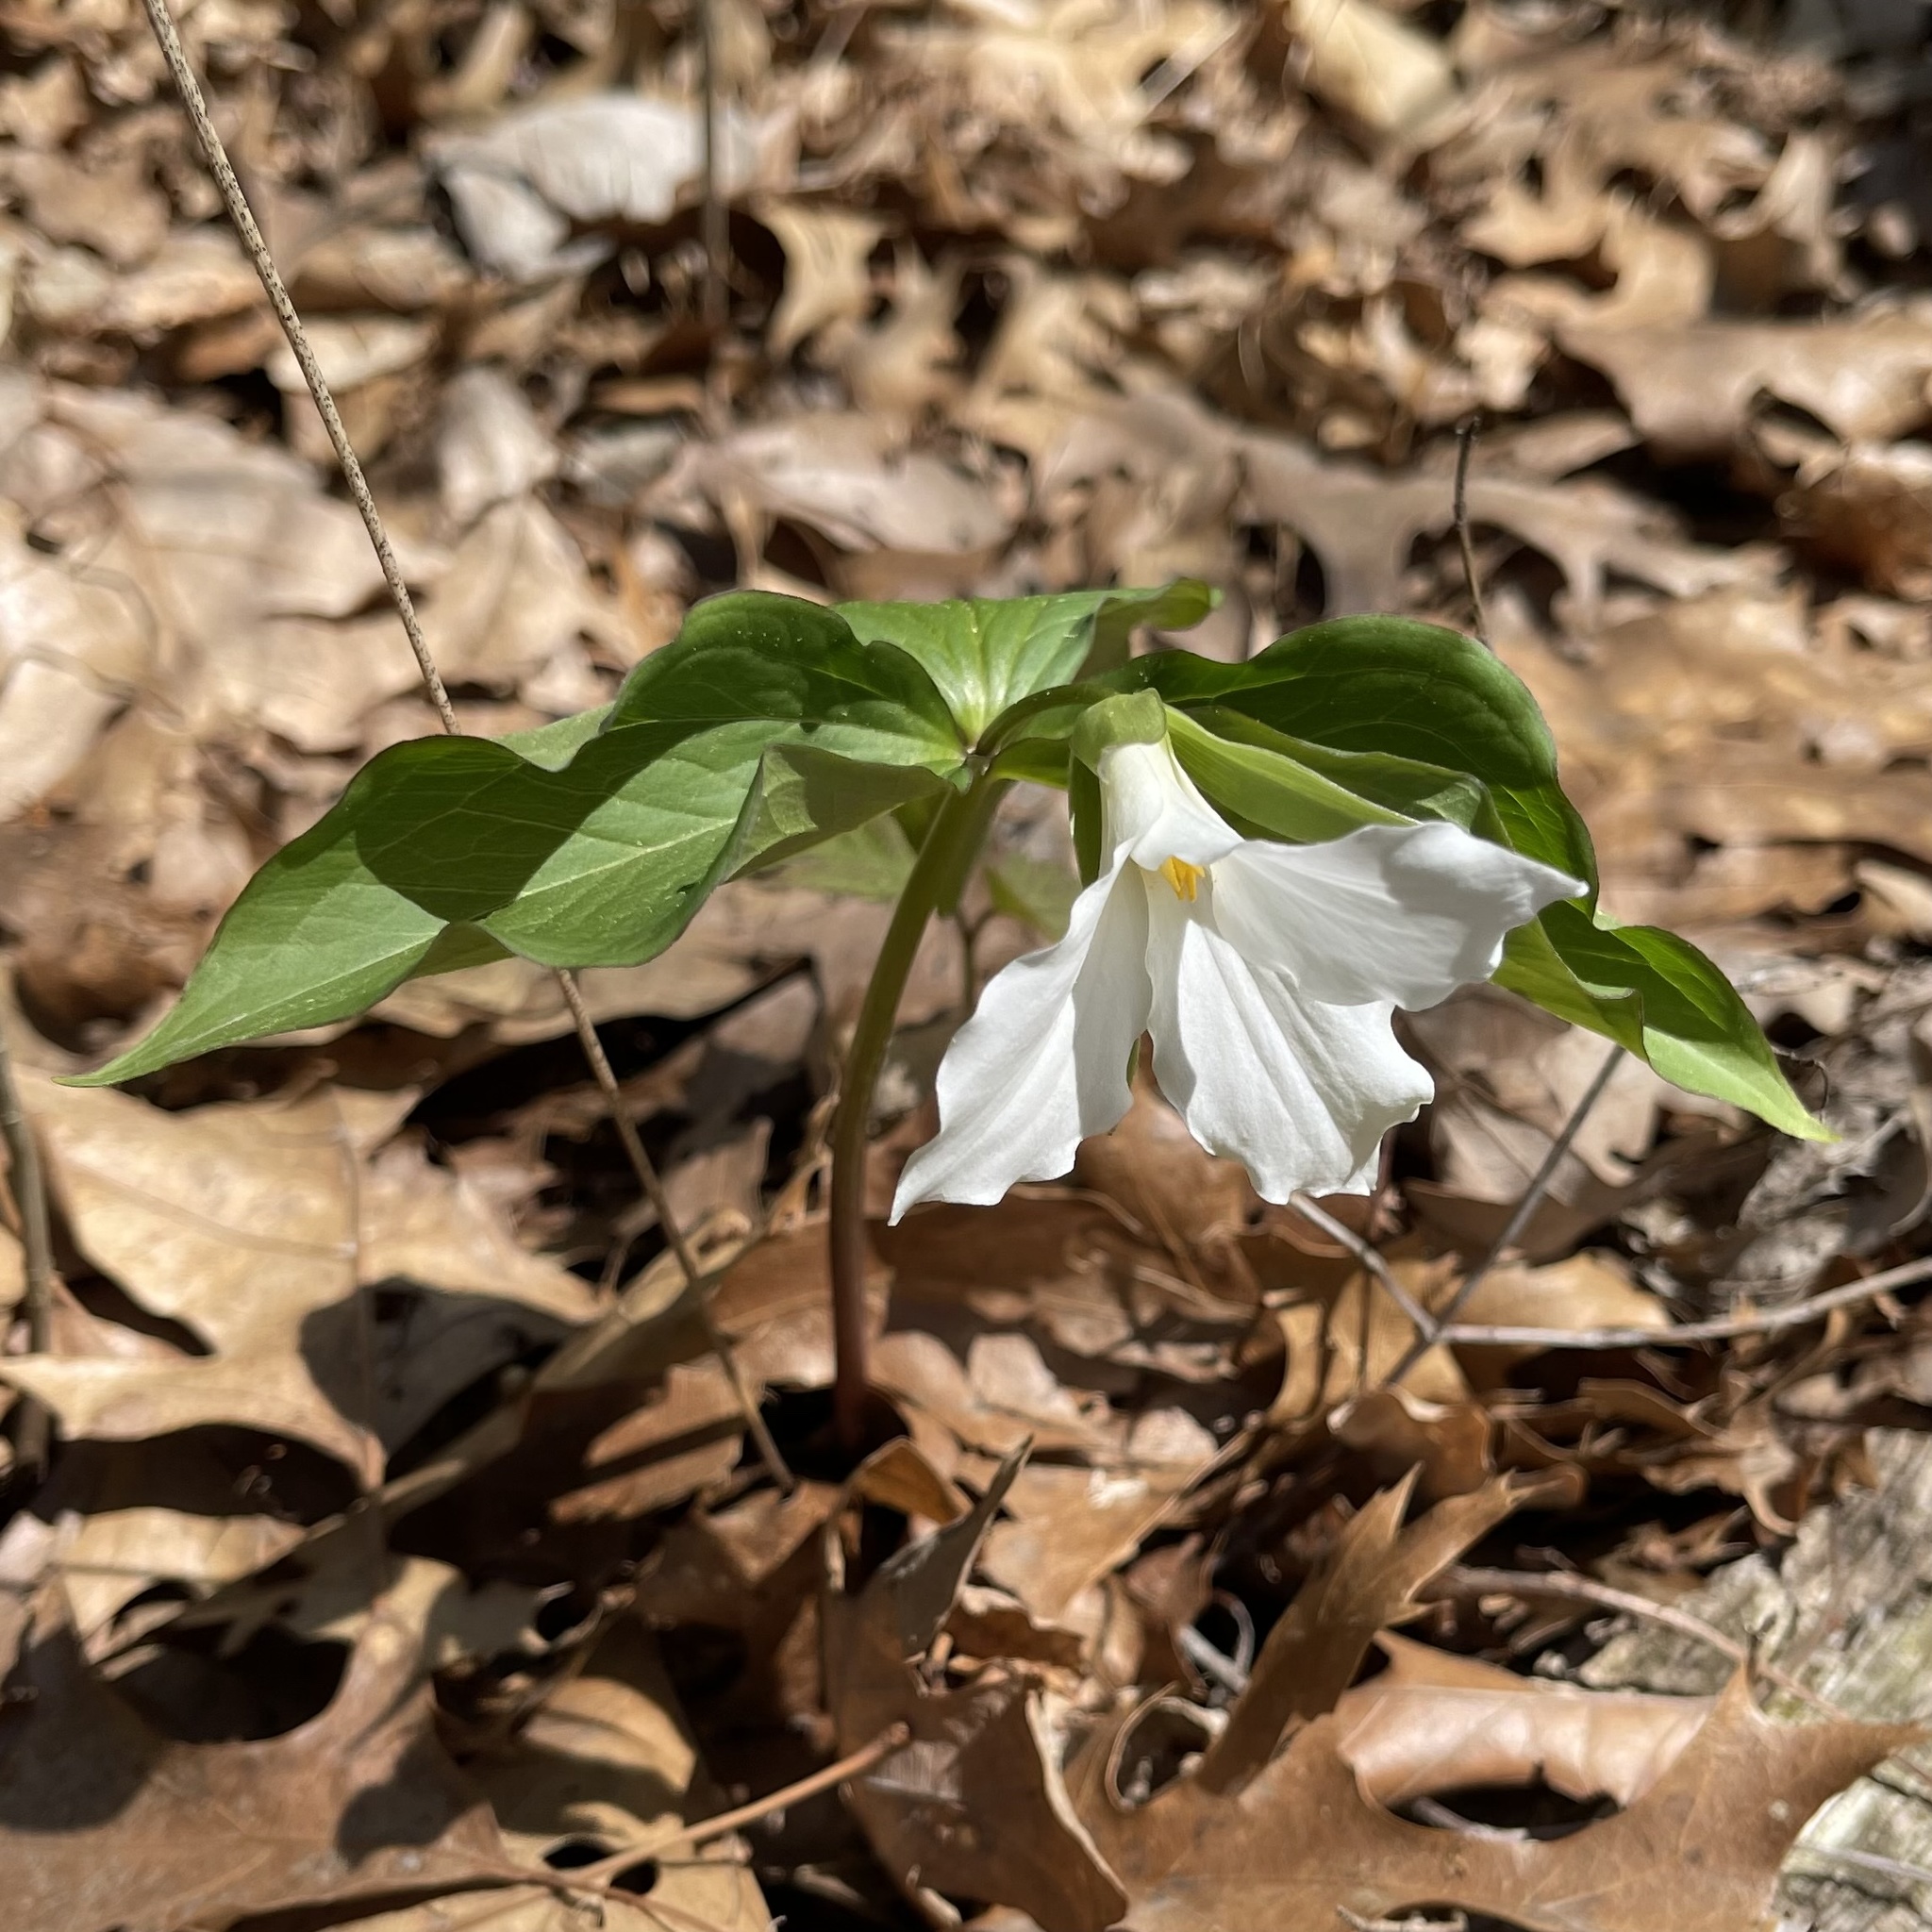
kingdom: Plantae
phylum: Tracheophyta
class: Liliopsida
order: Liliales
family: Melanthiaceae
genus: Trillium
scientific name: Trillium grandiflorum
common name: Great white trillium
